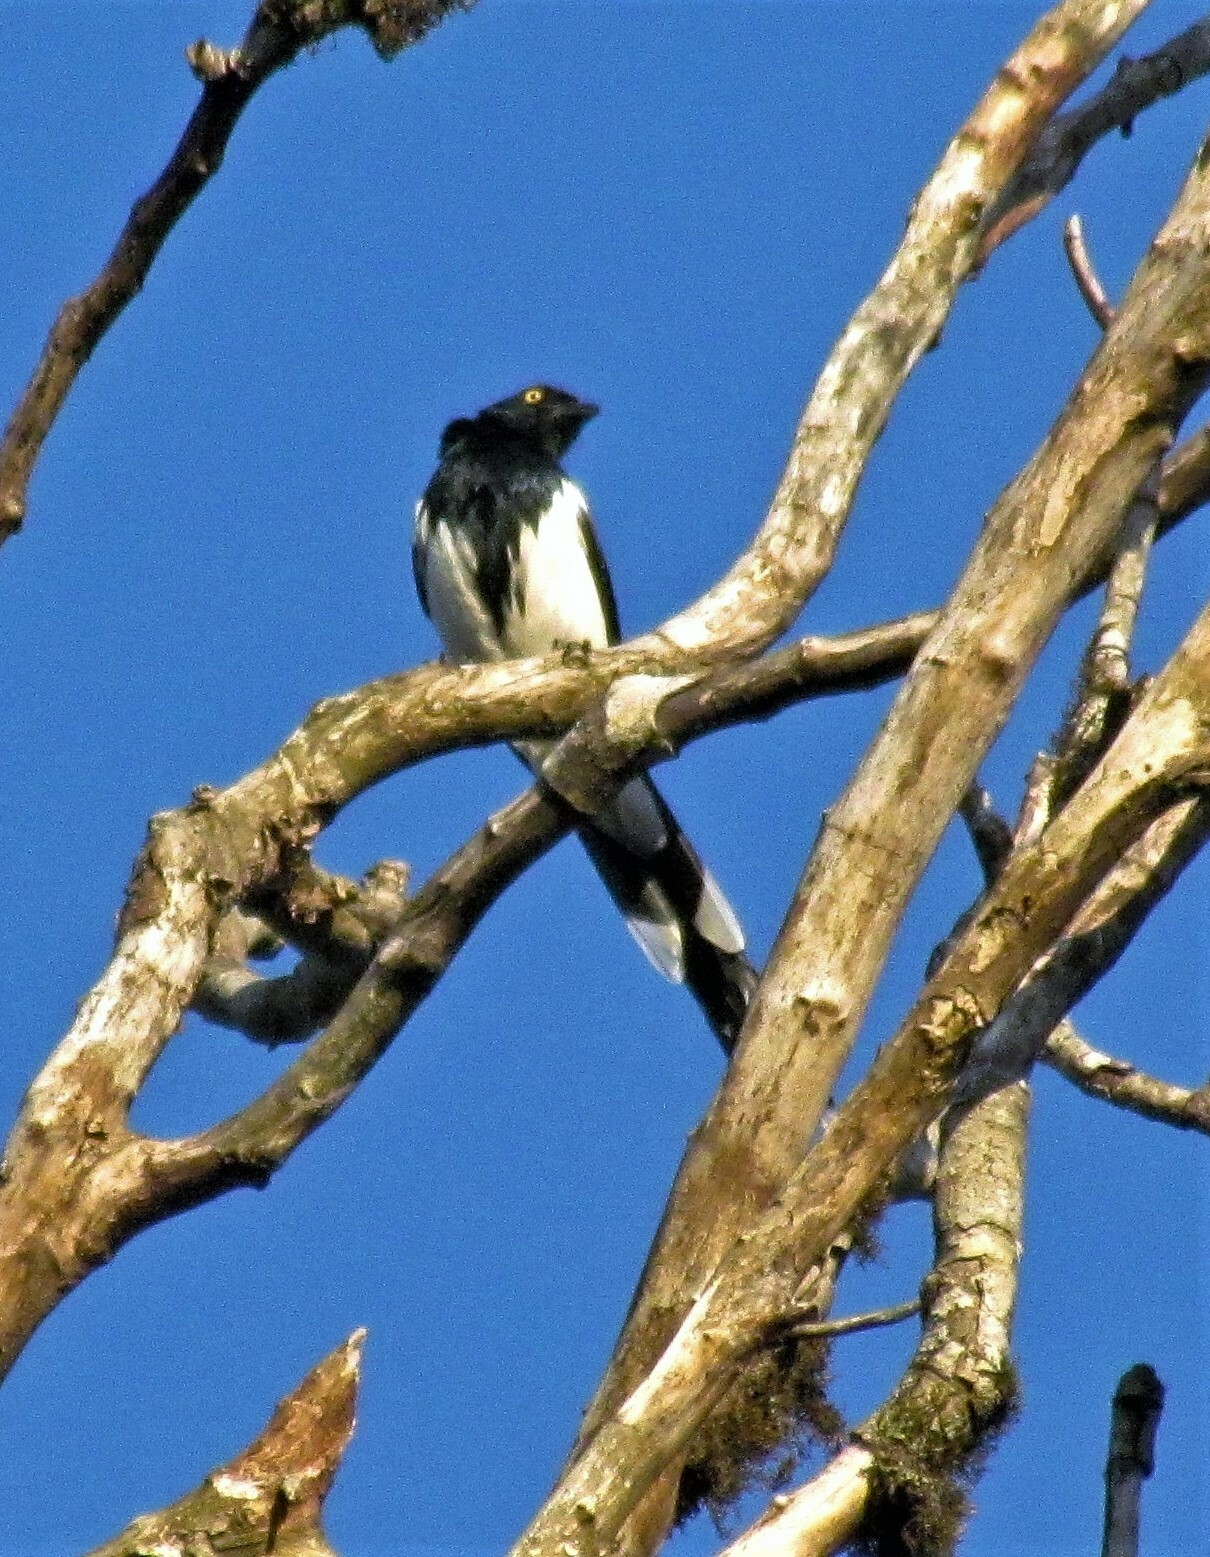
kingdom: Animalia
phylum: Chordata
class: Aves
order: Passeriformes
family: Thraupidae
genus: Cissopis
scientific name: Cissopis leverianus
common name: Magpie tanager
